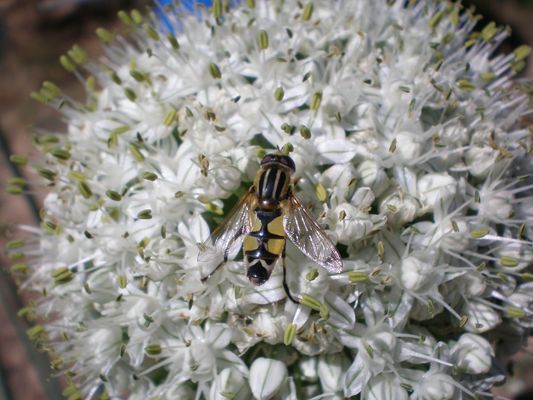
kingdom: Animalia
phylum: Arthropoda
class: Insecta
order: Diptera
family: Syrphidae
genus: Helophilus
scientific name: Helophilus trivittatus
